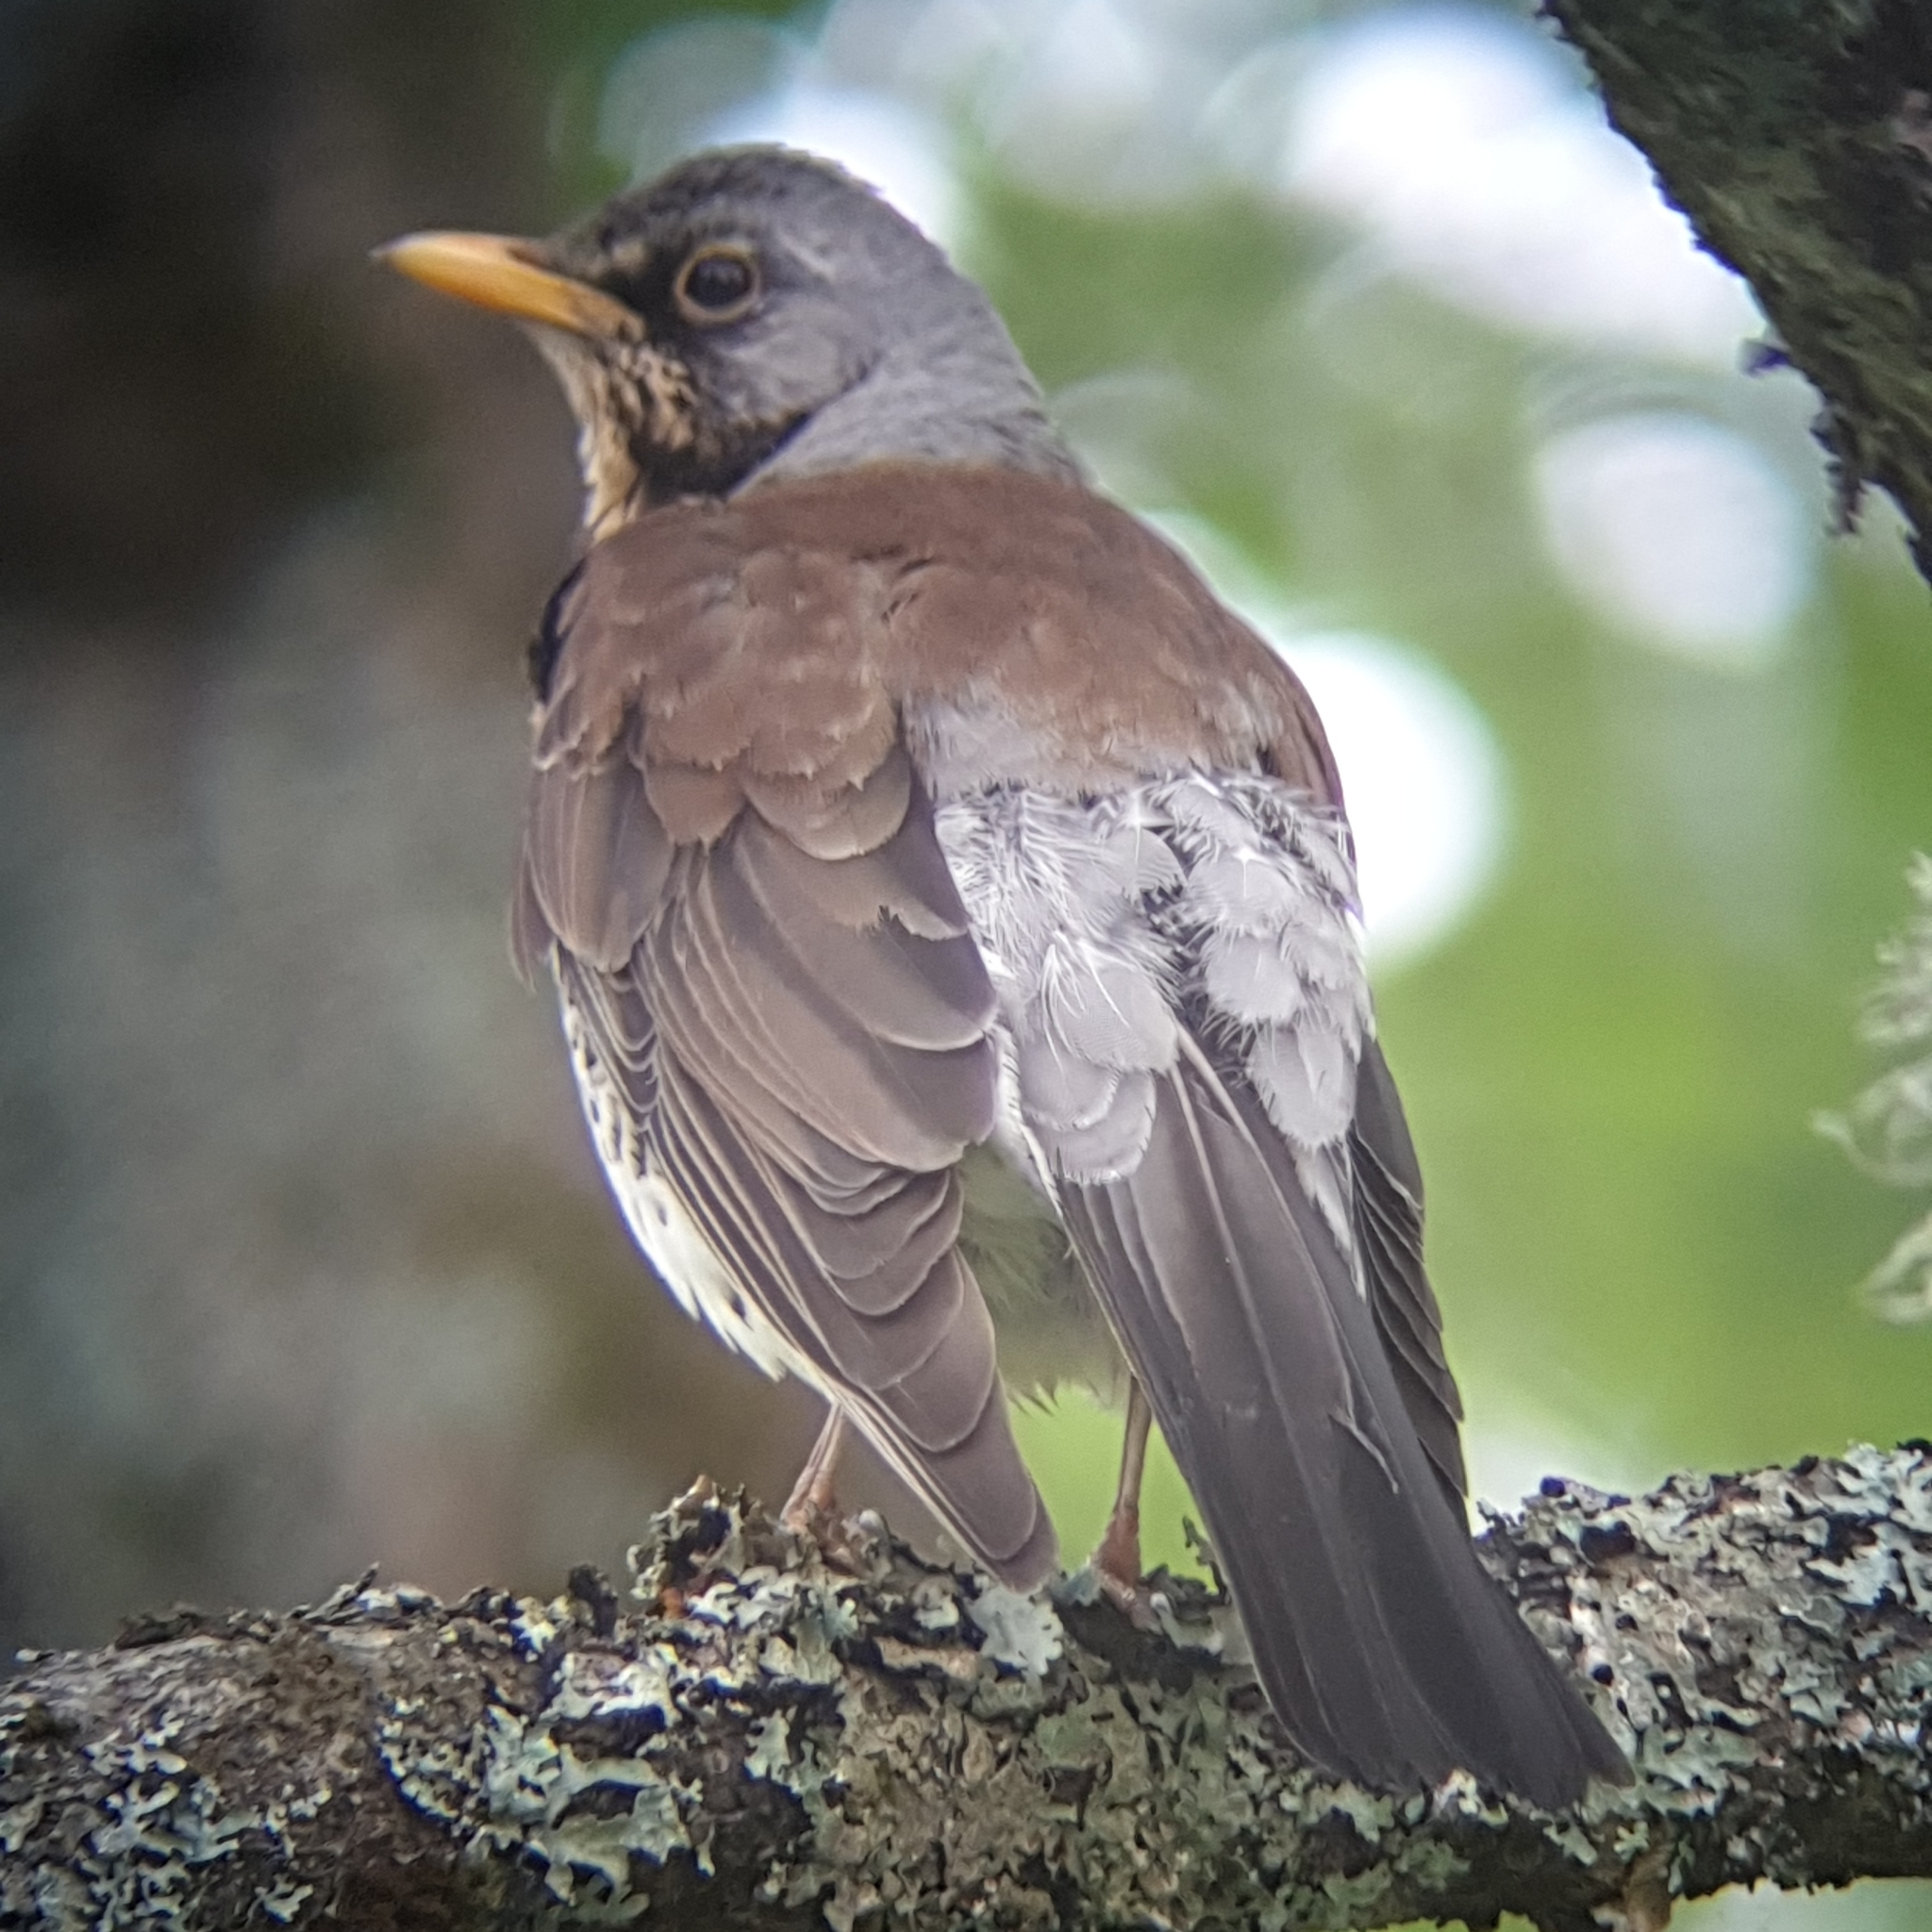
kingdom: Animalia
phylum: Chordata
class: Aves
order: Passeriformes
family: Turdidae
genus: Turdus
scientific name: Turdus pilaris
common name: Fieldfare
